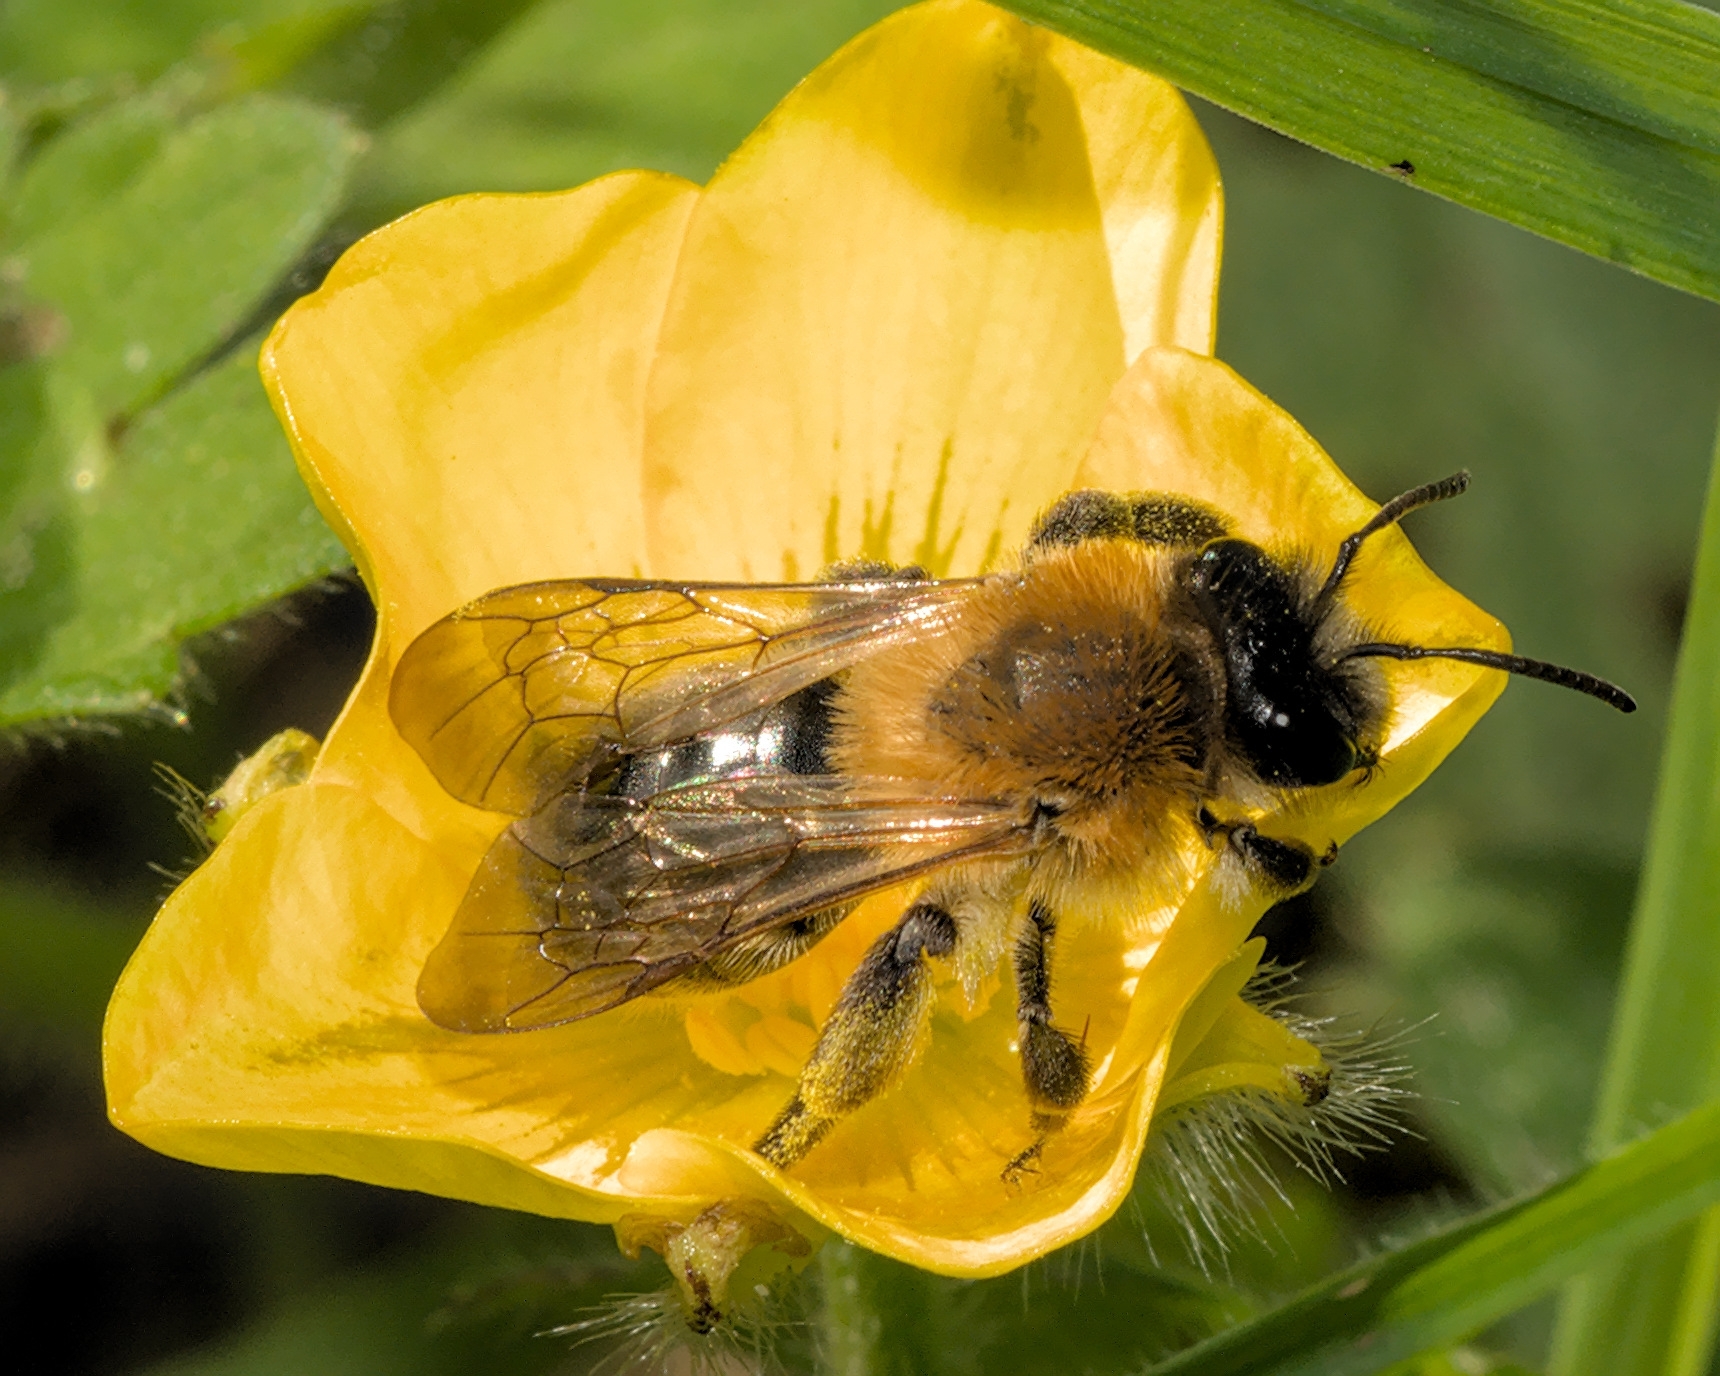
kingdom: Animalia
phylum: Arthropoda
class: Insecta
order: Hymenoptera
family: Andrenidae
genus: Andrena
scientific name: Andrena nitida
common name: Grey-patched mining bee
